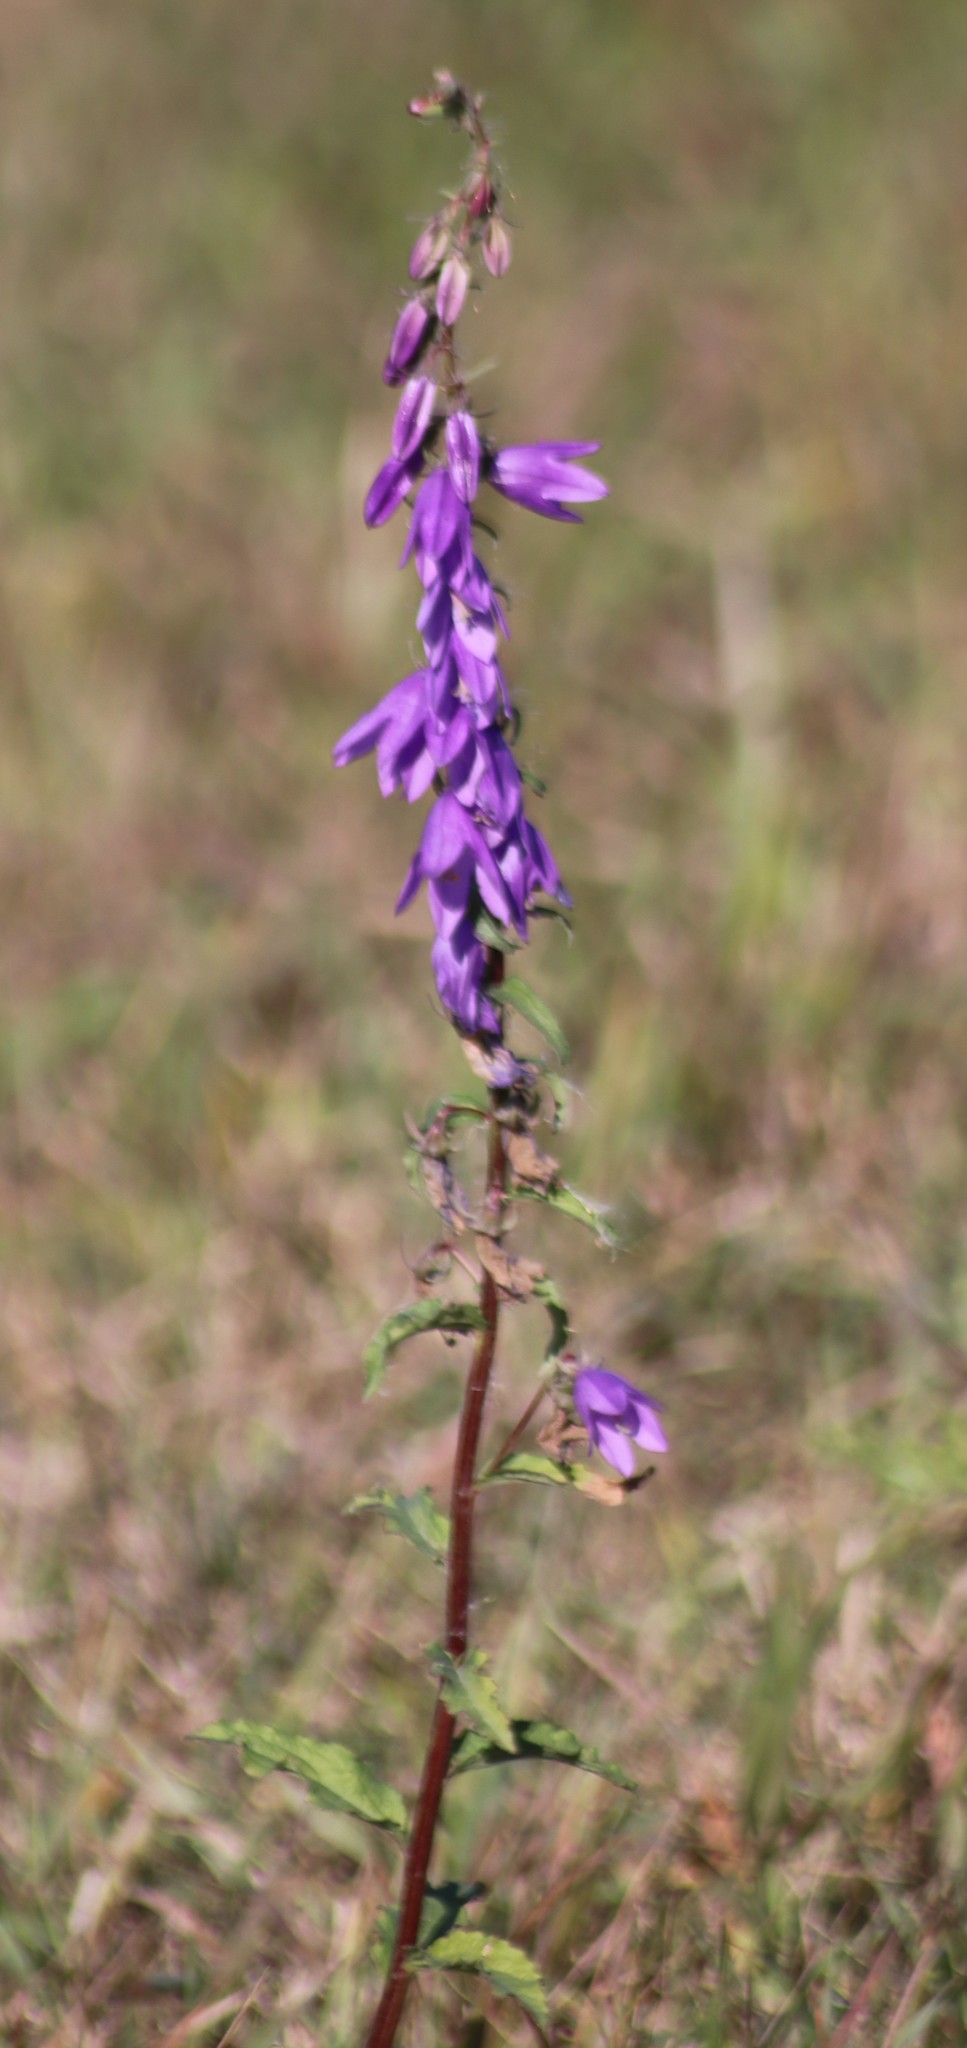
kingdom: Plantae
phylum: Tracheophyta
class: Magnoliopsida
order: Asterales
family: Campanulaceae
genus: Campanula
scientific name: Campanula rapunculoides
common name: Creeping bellflower
